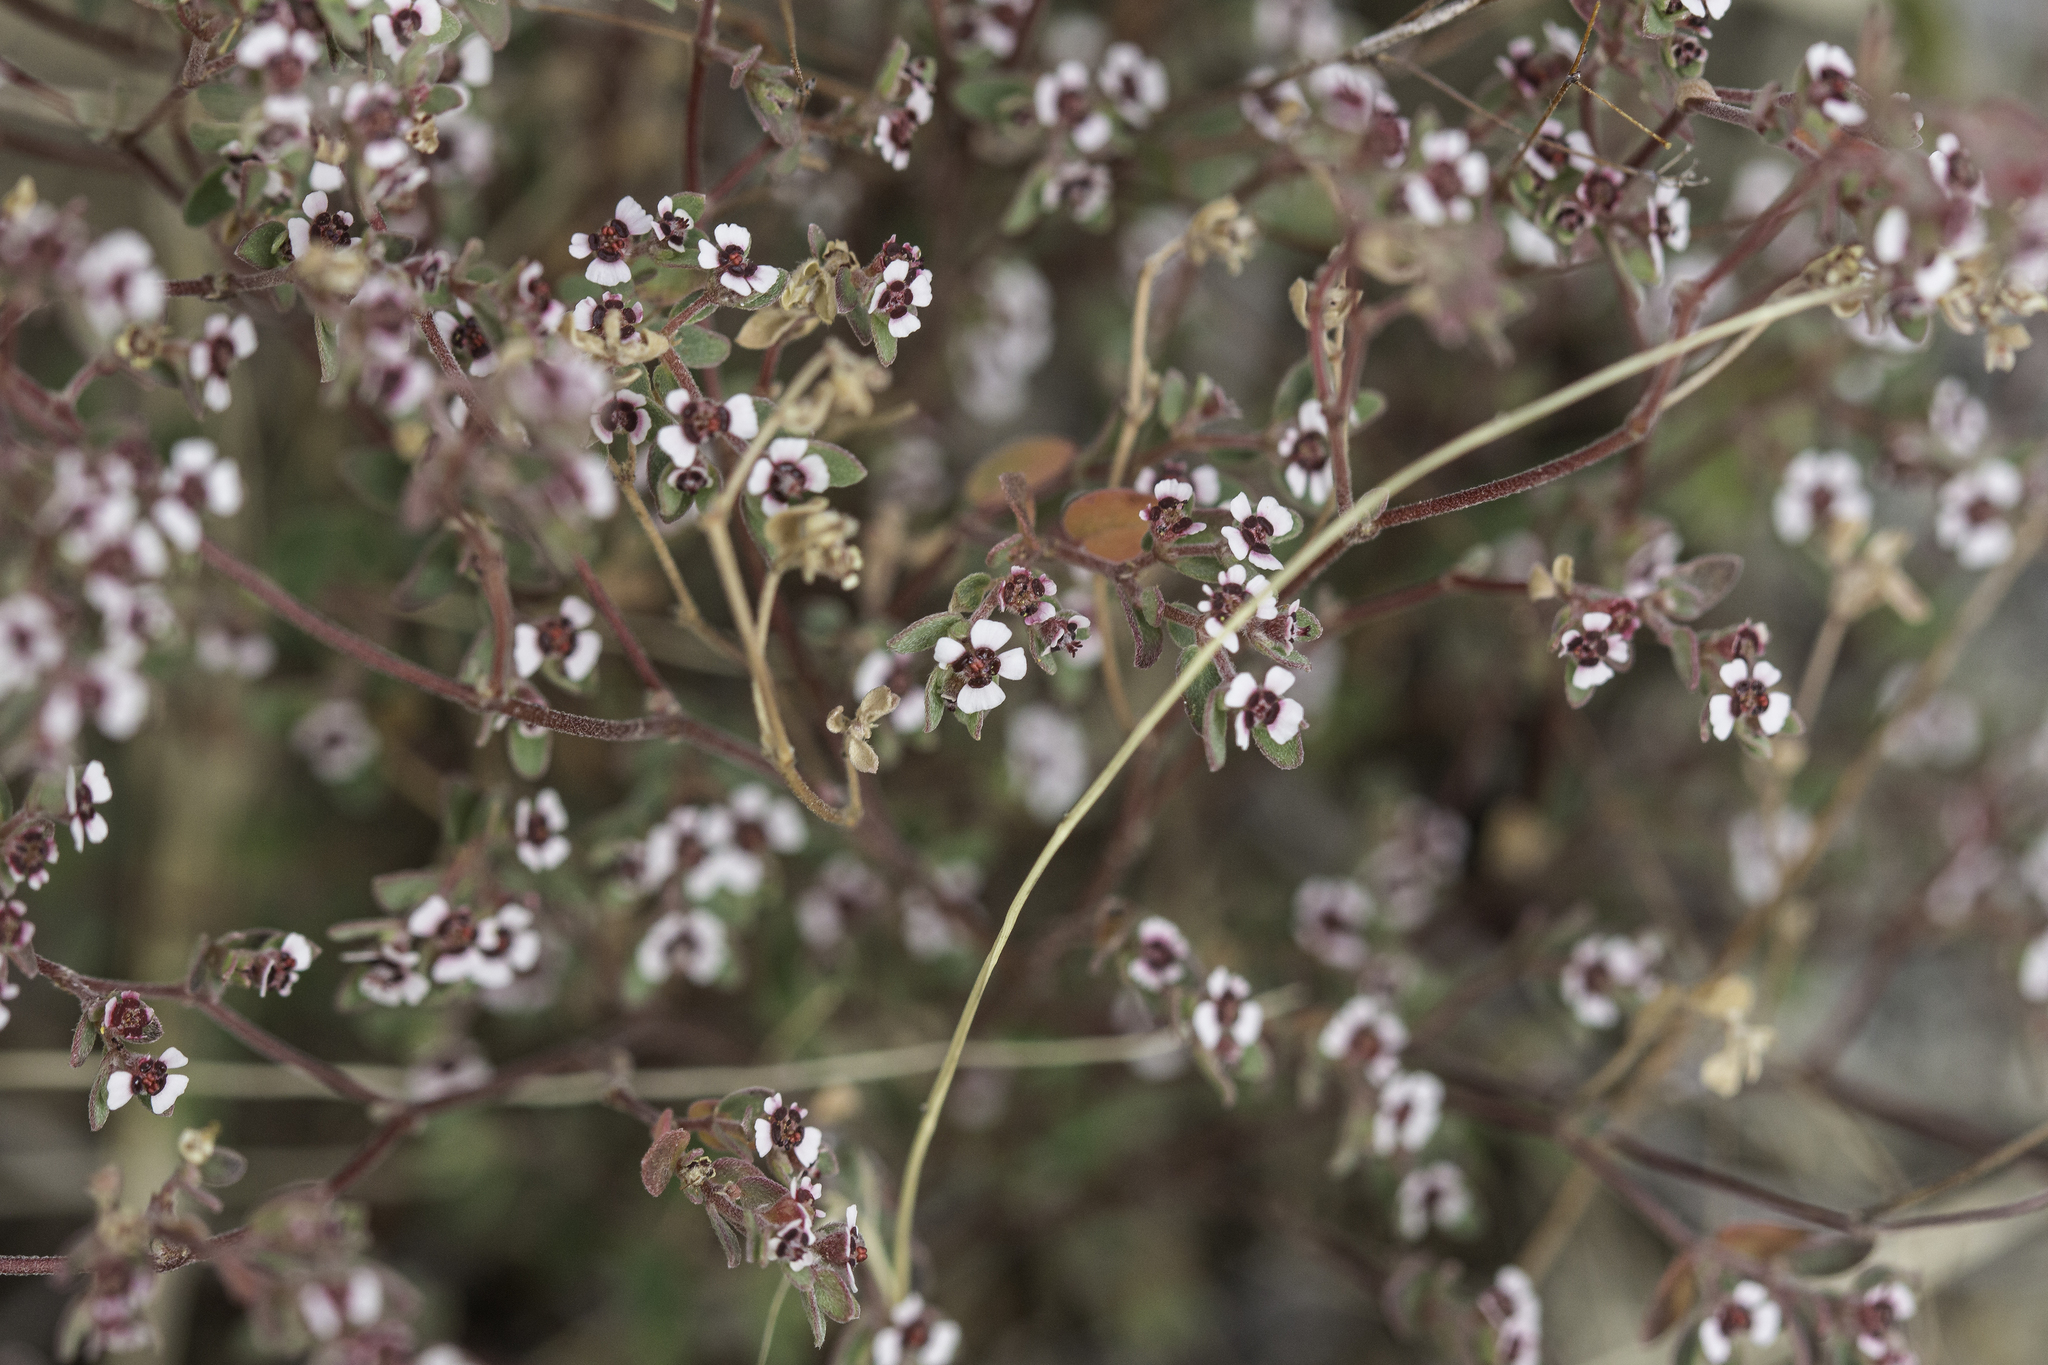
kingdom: Plantae
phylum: Tracheophyta
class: Magnoliopsida
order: Malpighiales
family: Euphorbiaceae
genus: Euphorbia
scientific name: Euphorbia melanadenia
